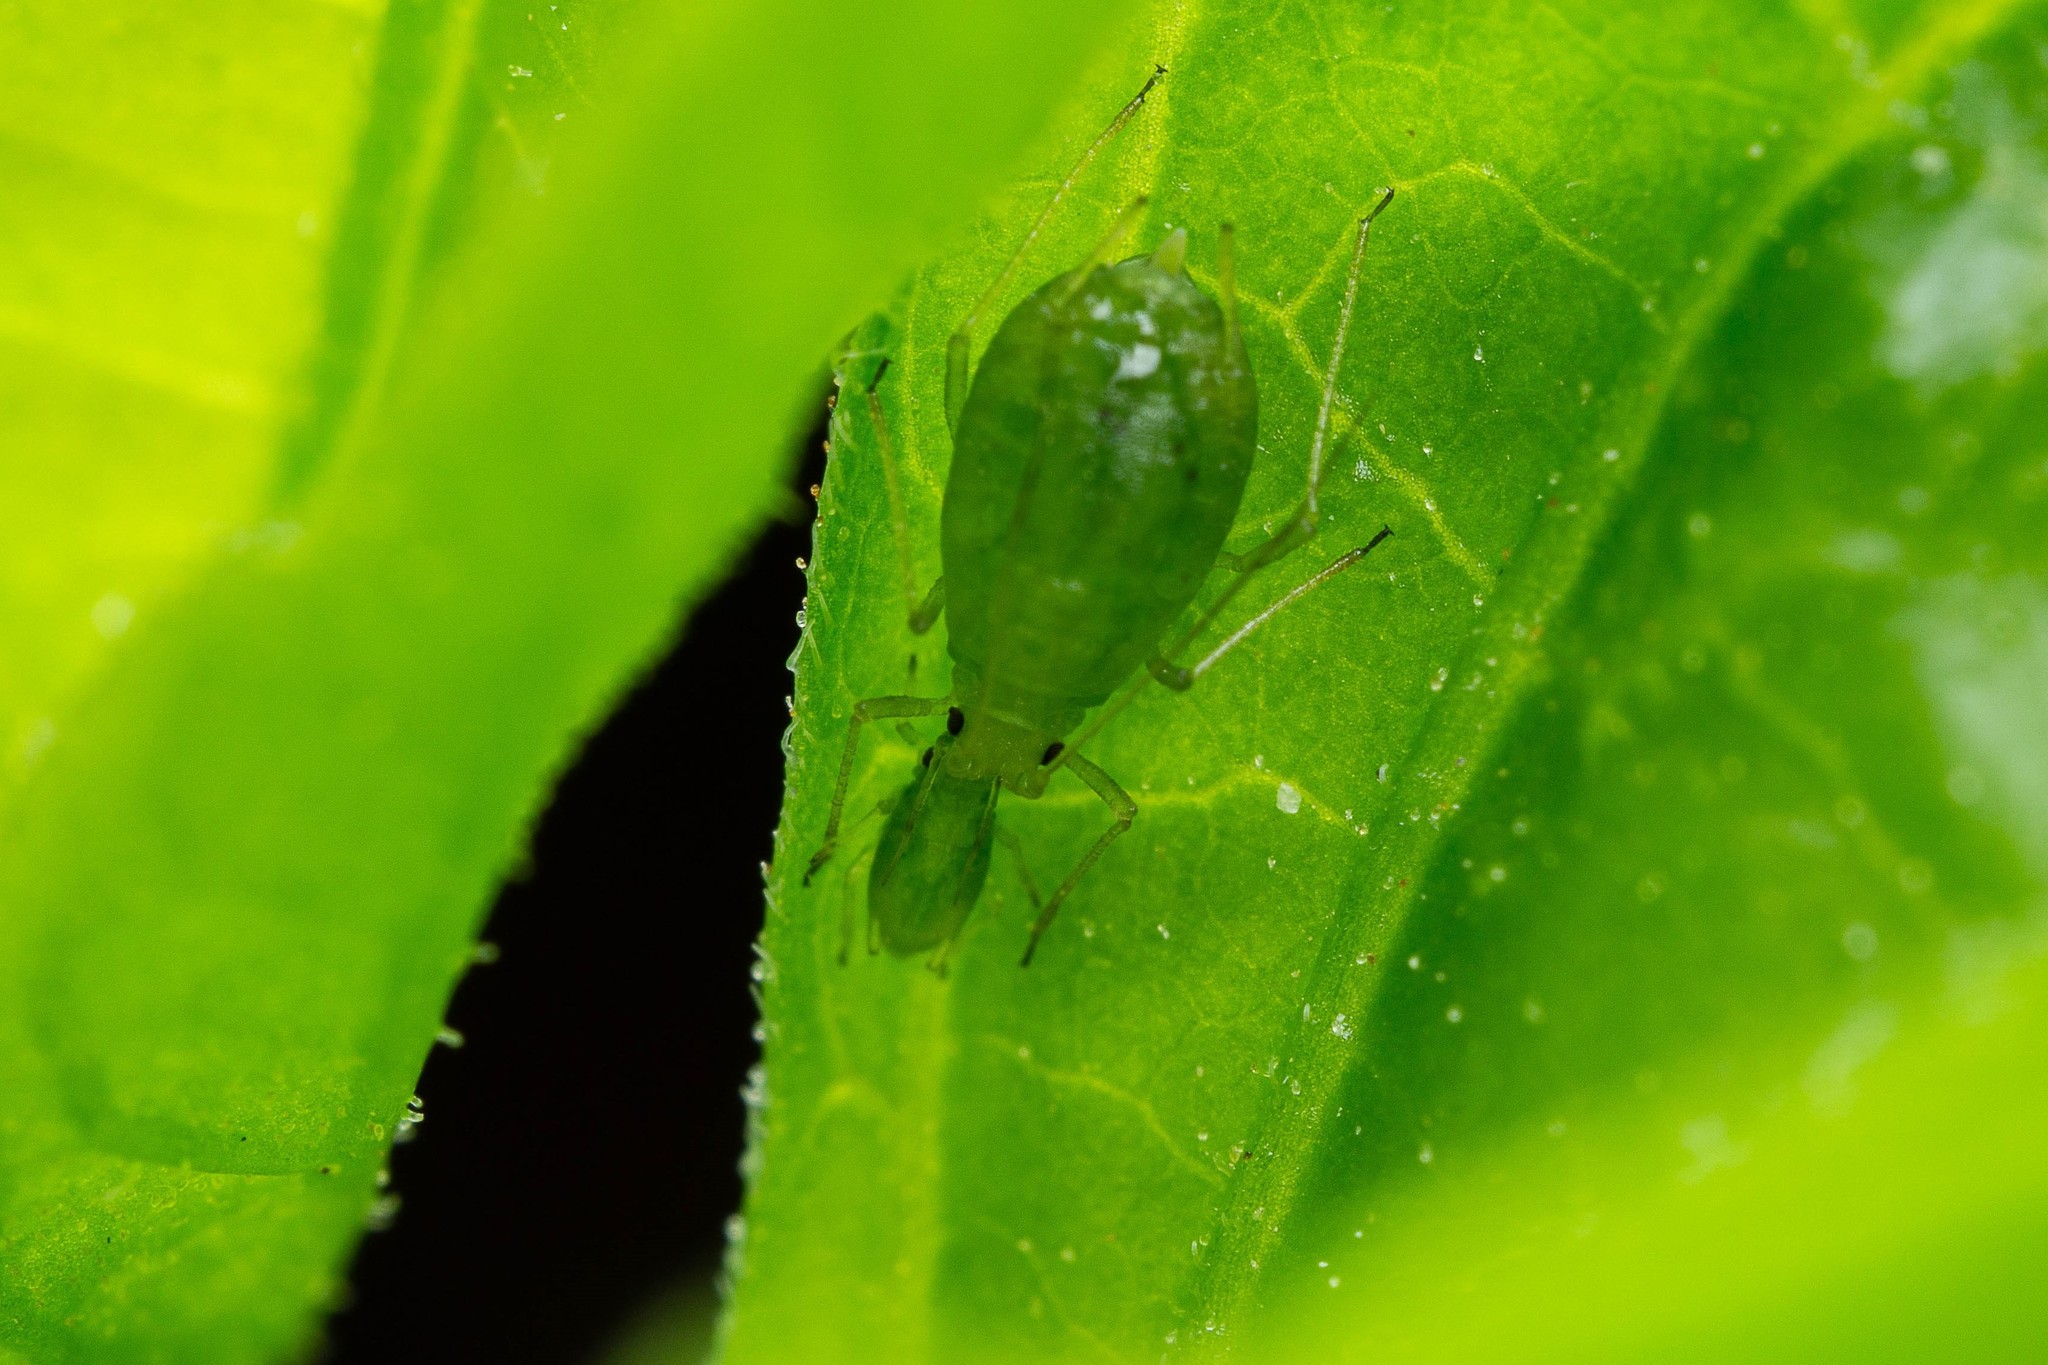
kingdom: Animalia
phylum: Arthropoda
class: Insecta
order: Hemiptera
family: Aphididae
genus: Myzus
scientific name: Myzus persicae
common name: Green peach aphid
